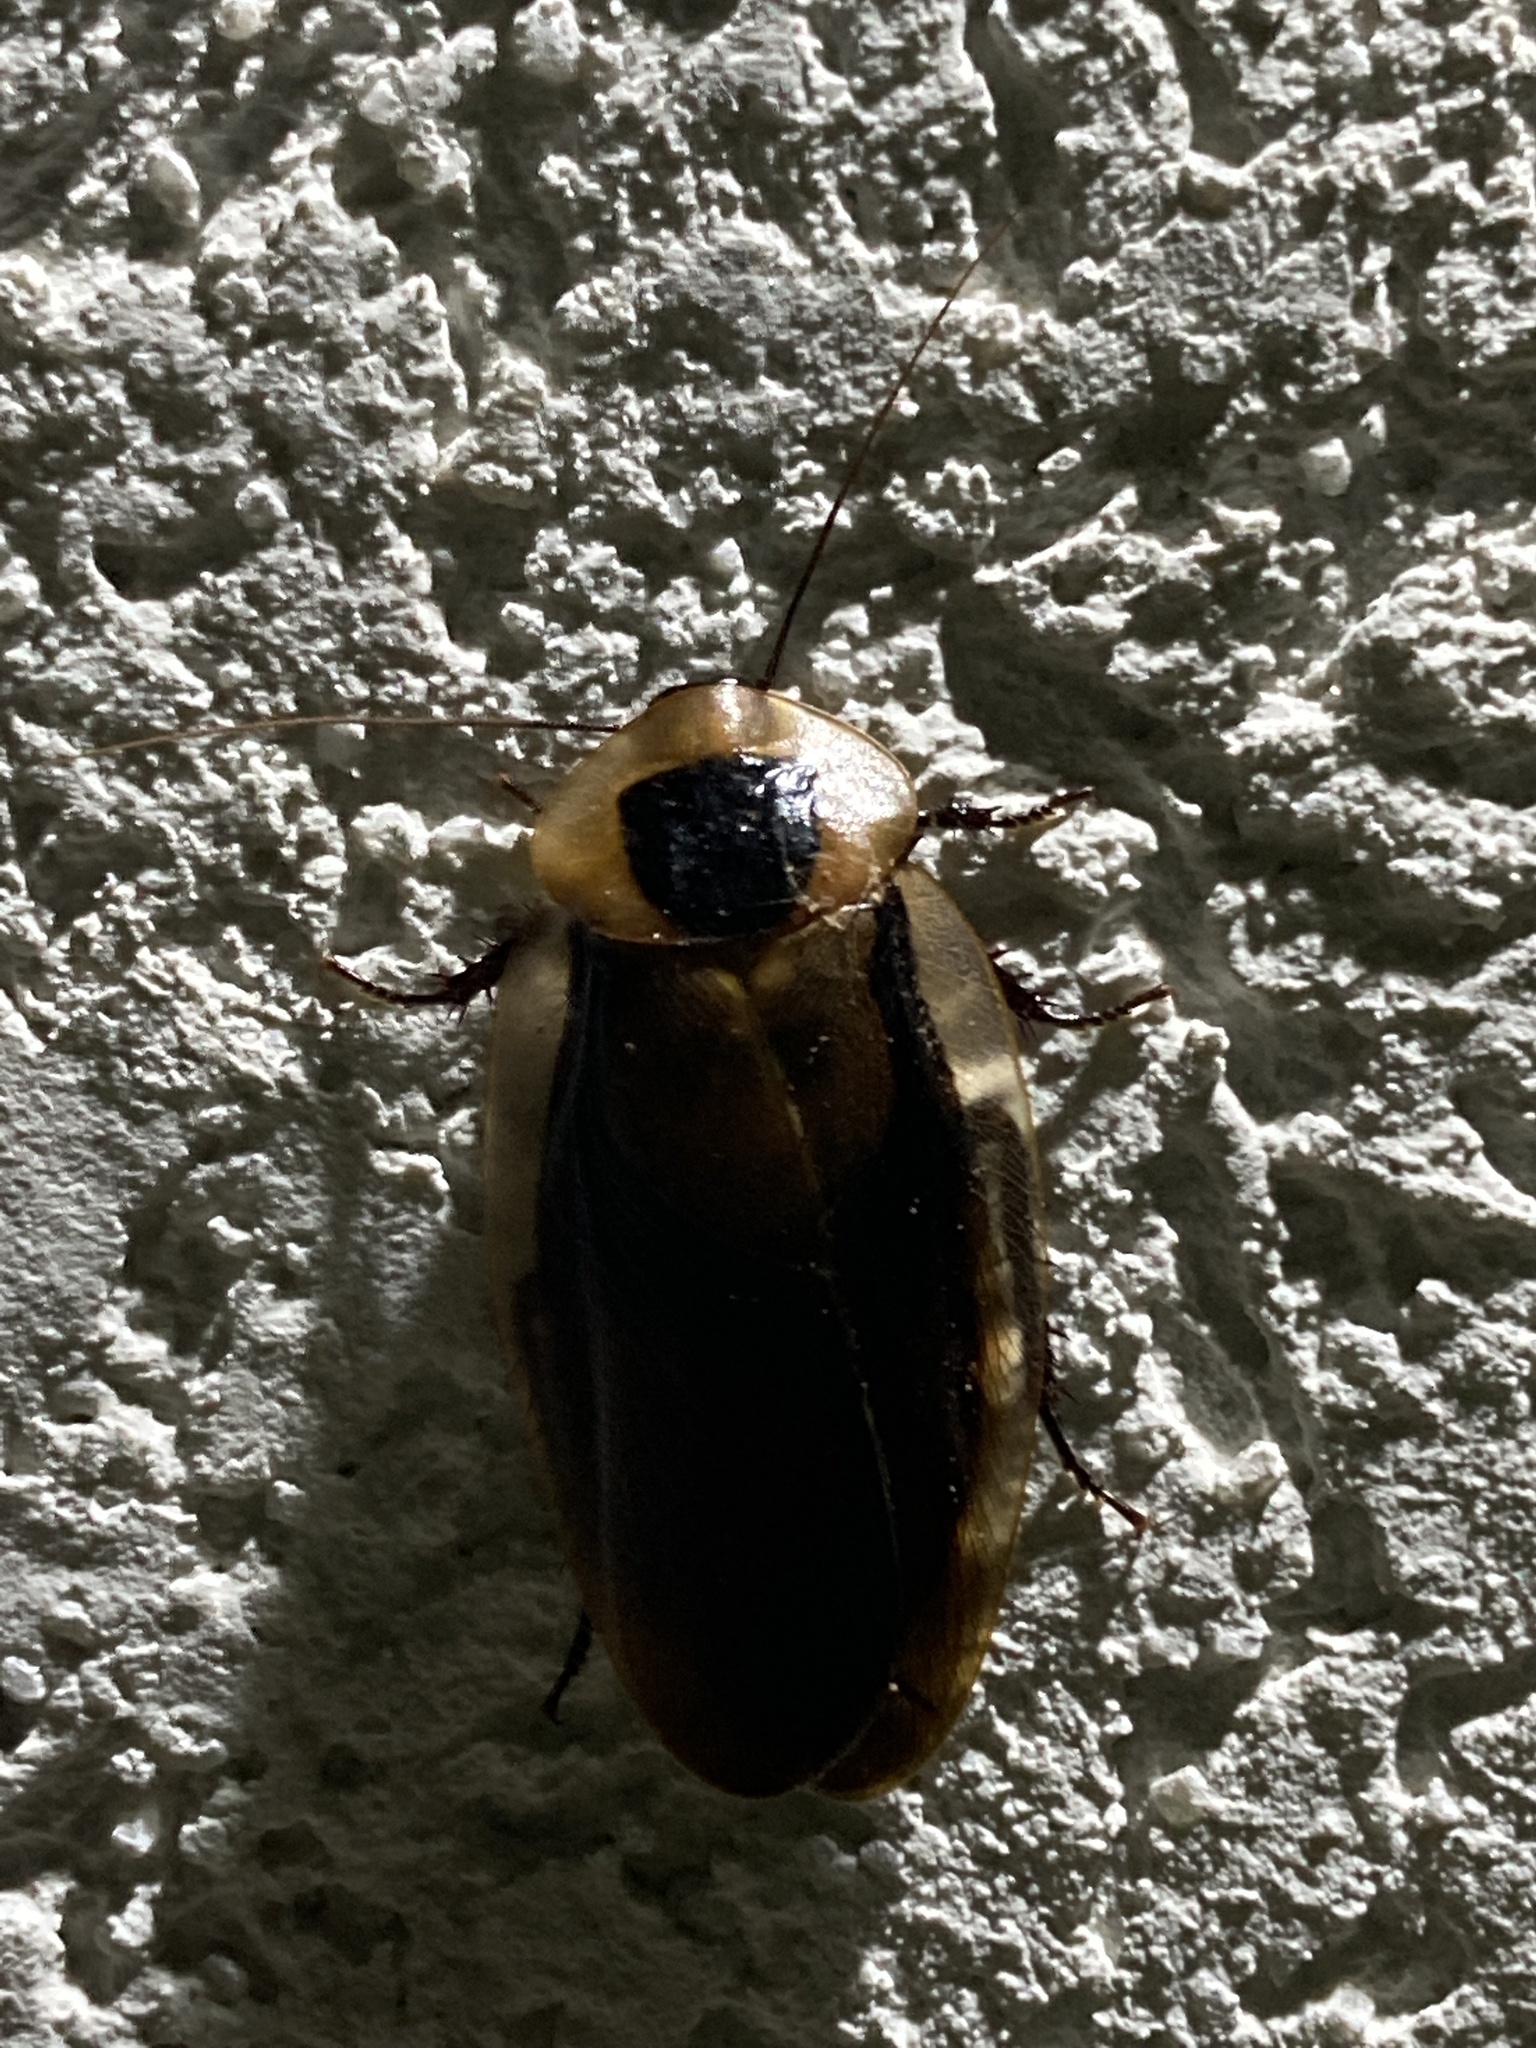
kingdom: Animalia
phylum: Arthropoda
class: Insecta
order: Blattodea
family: Blaberidae
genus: Blaberus
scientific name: Blaberus giganteus
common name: Giant cave cockroach
